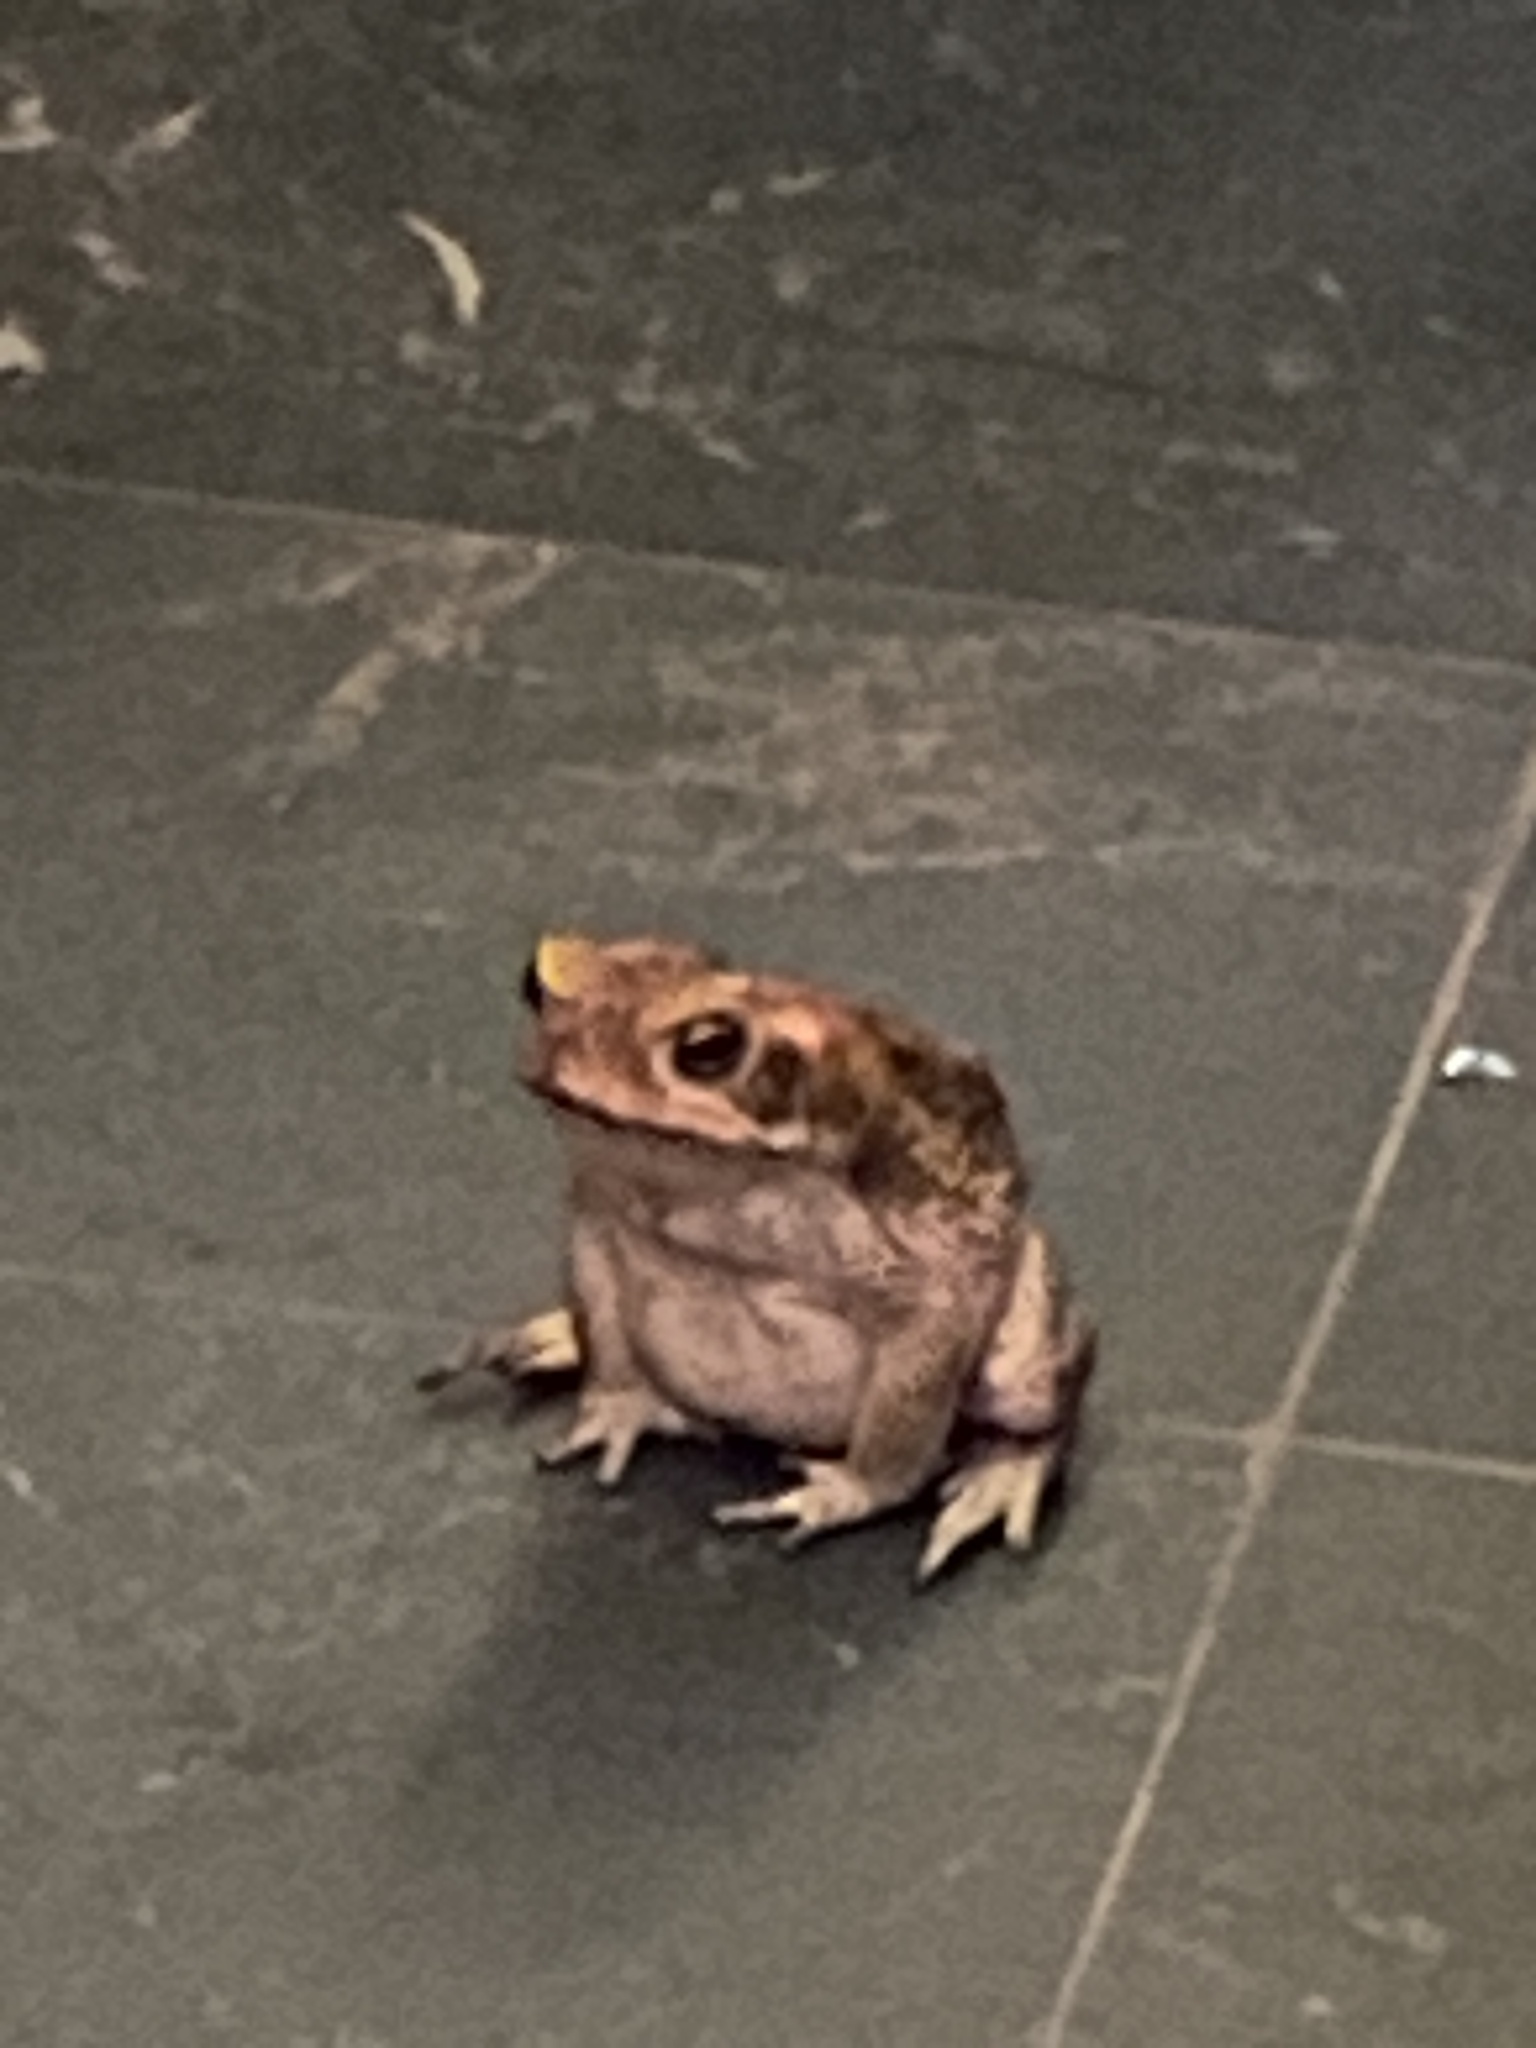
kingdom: Animalia
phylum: Chordata
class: Amphibia
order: Anura
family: Bufonidae
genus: Rhinella
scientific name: Rhinella marina
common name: Cane toad
